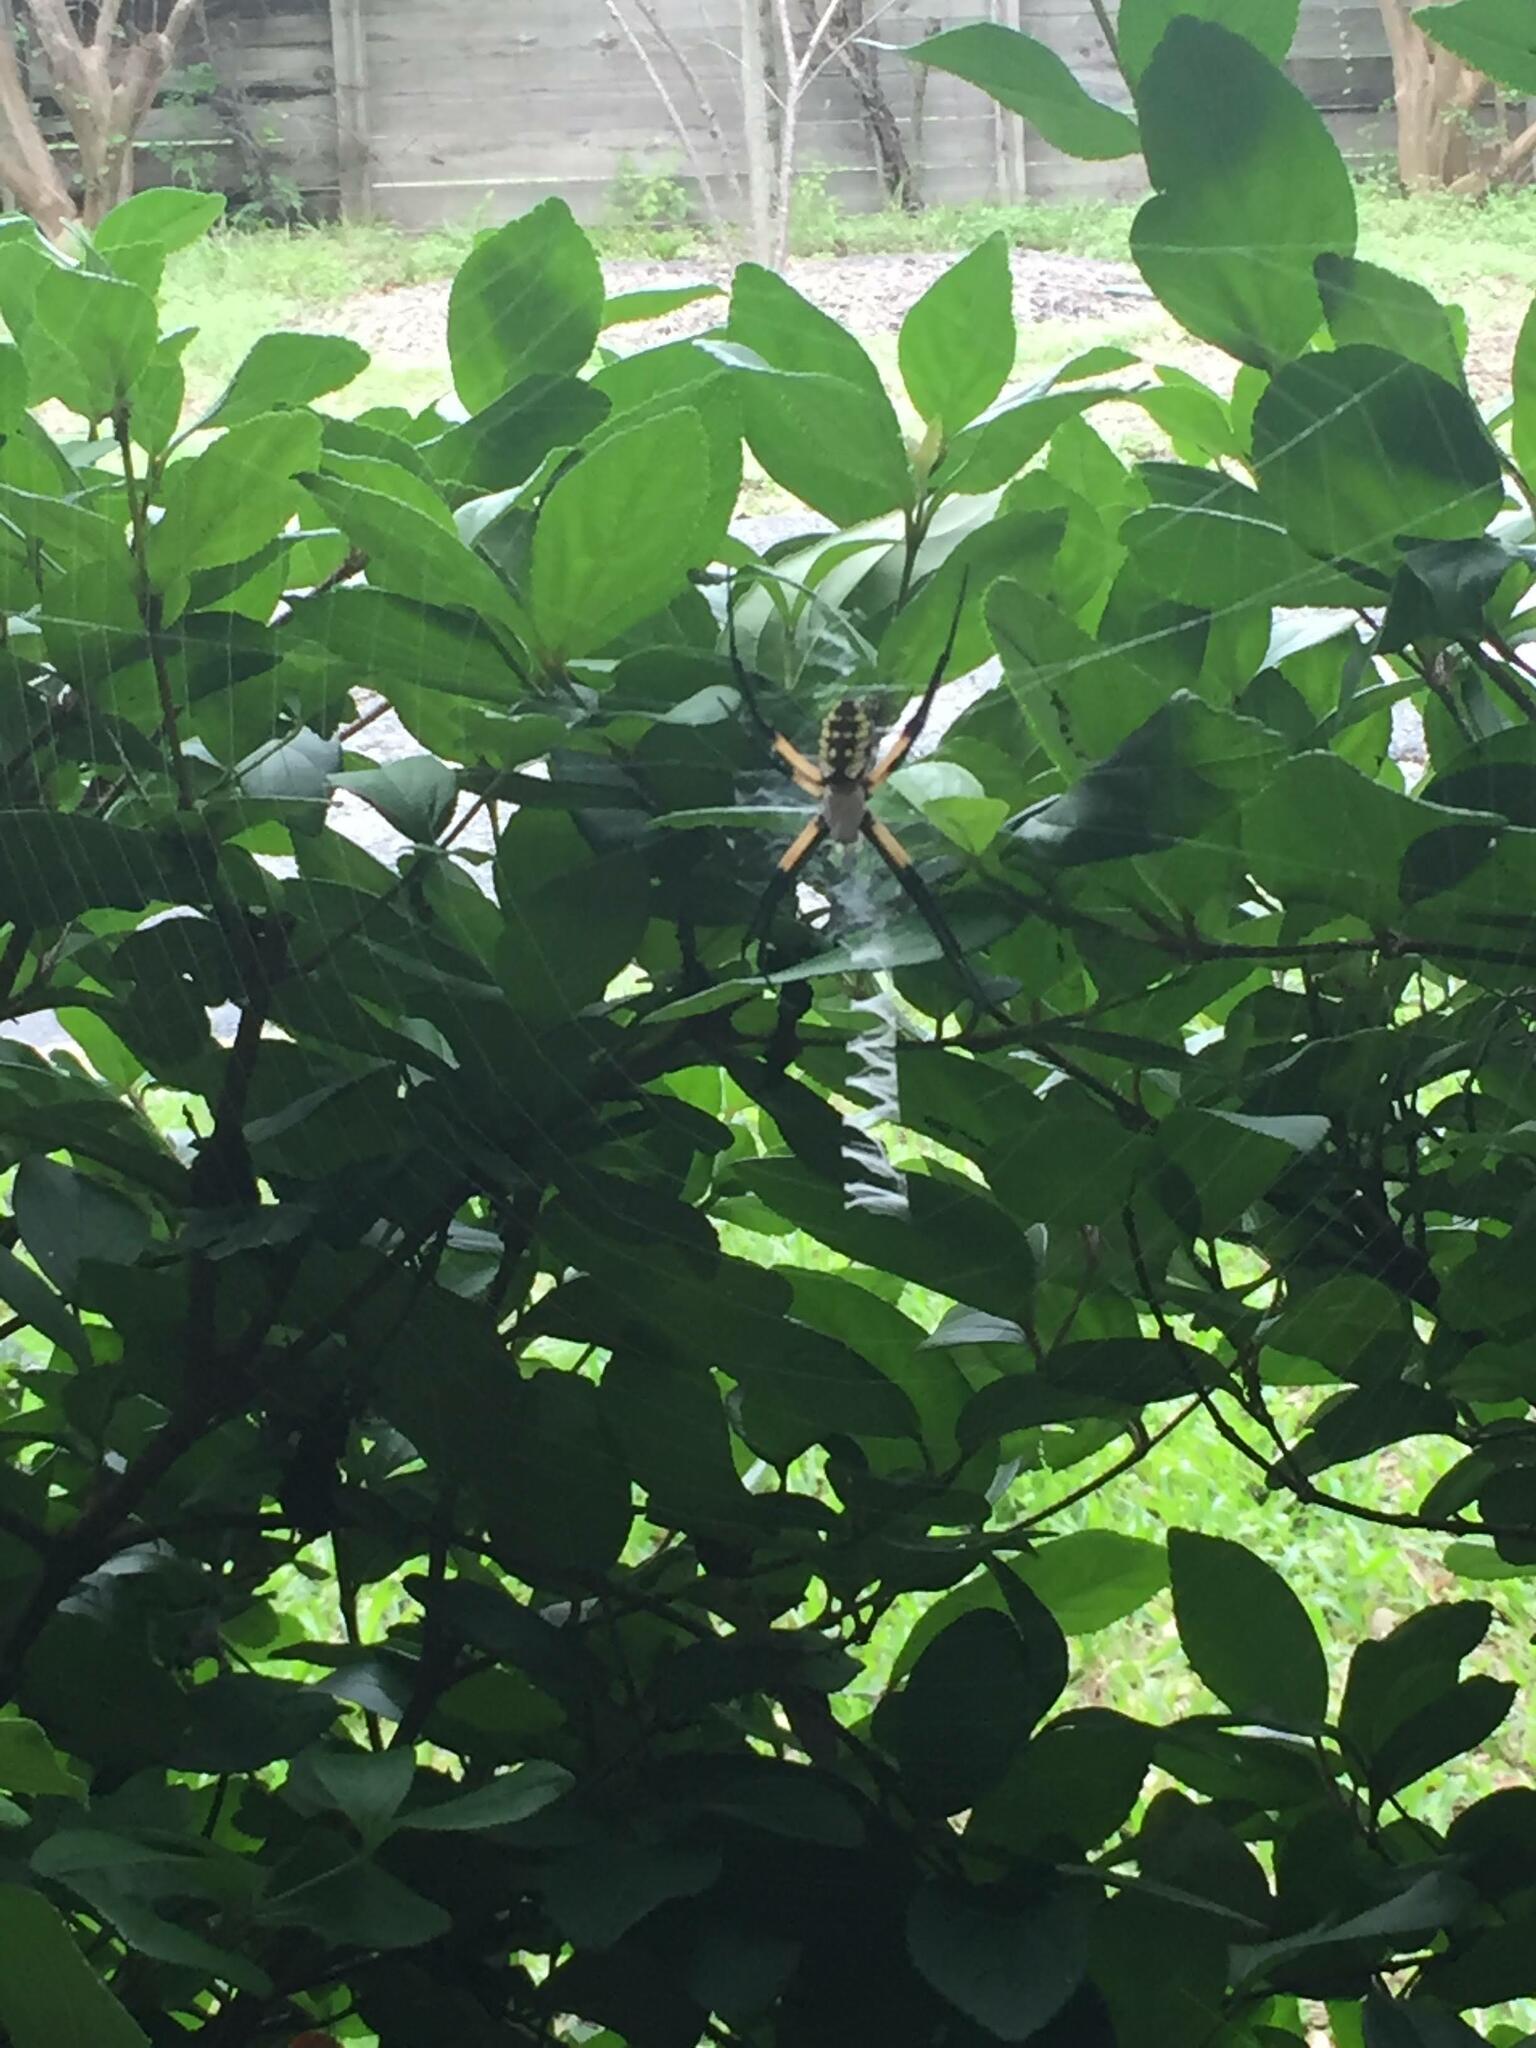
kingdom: Animalia
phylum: Arthropoda
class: Arachnida
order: Araneae
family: Araneidae
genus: Argiope
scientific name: Argiope aurantia
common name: Orb weavers
